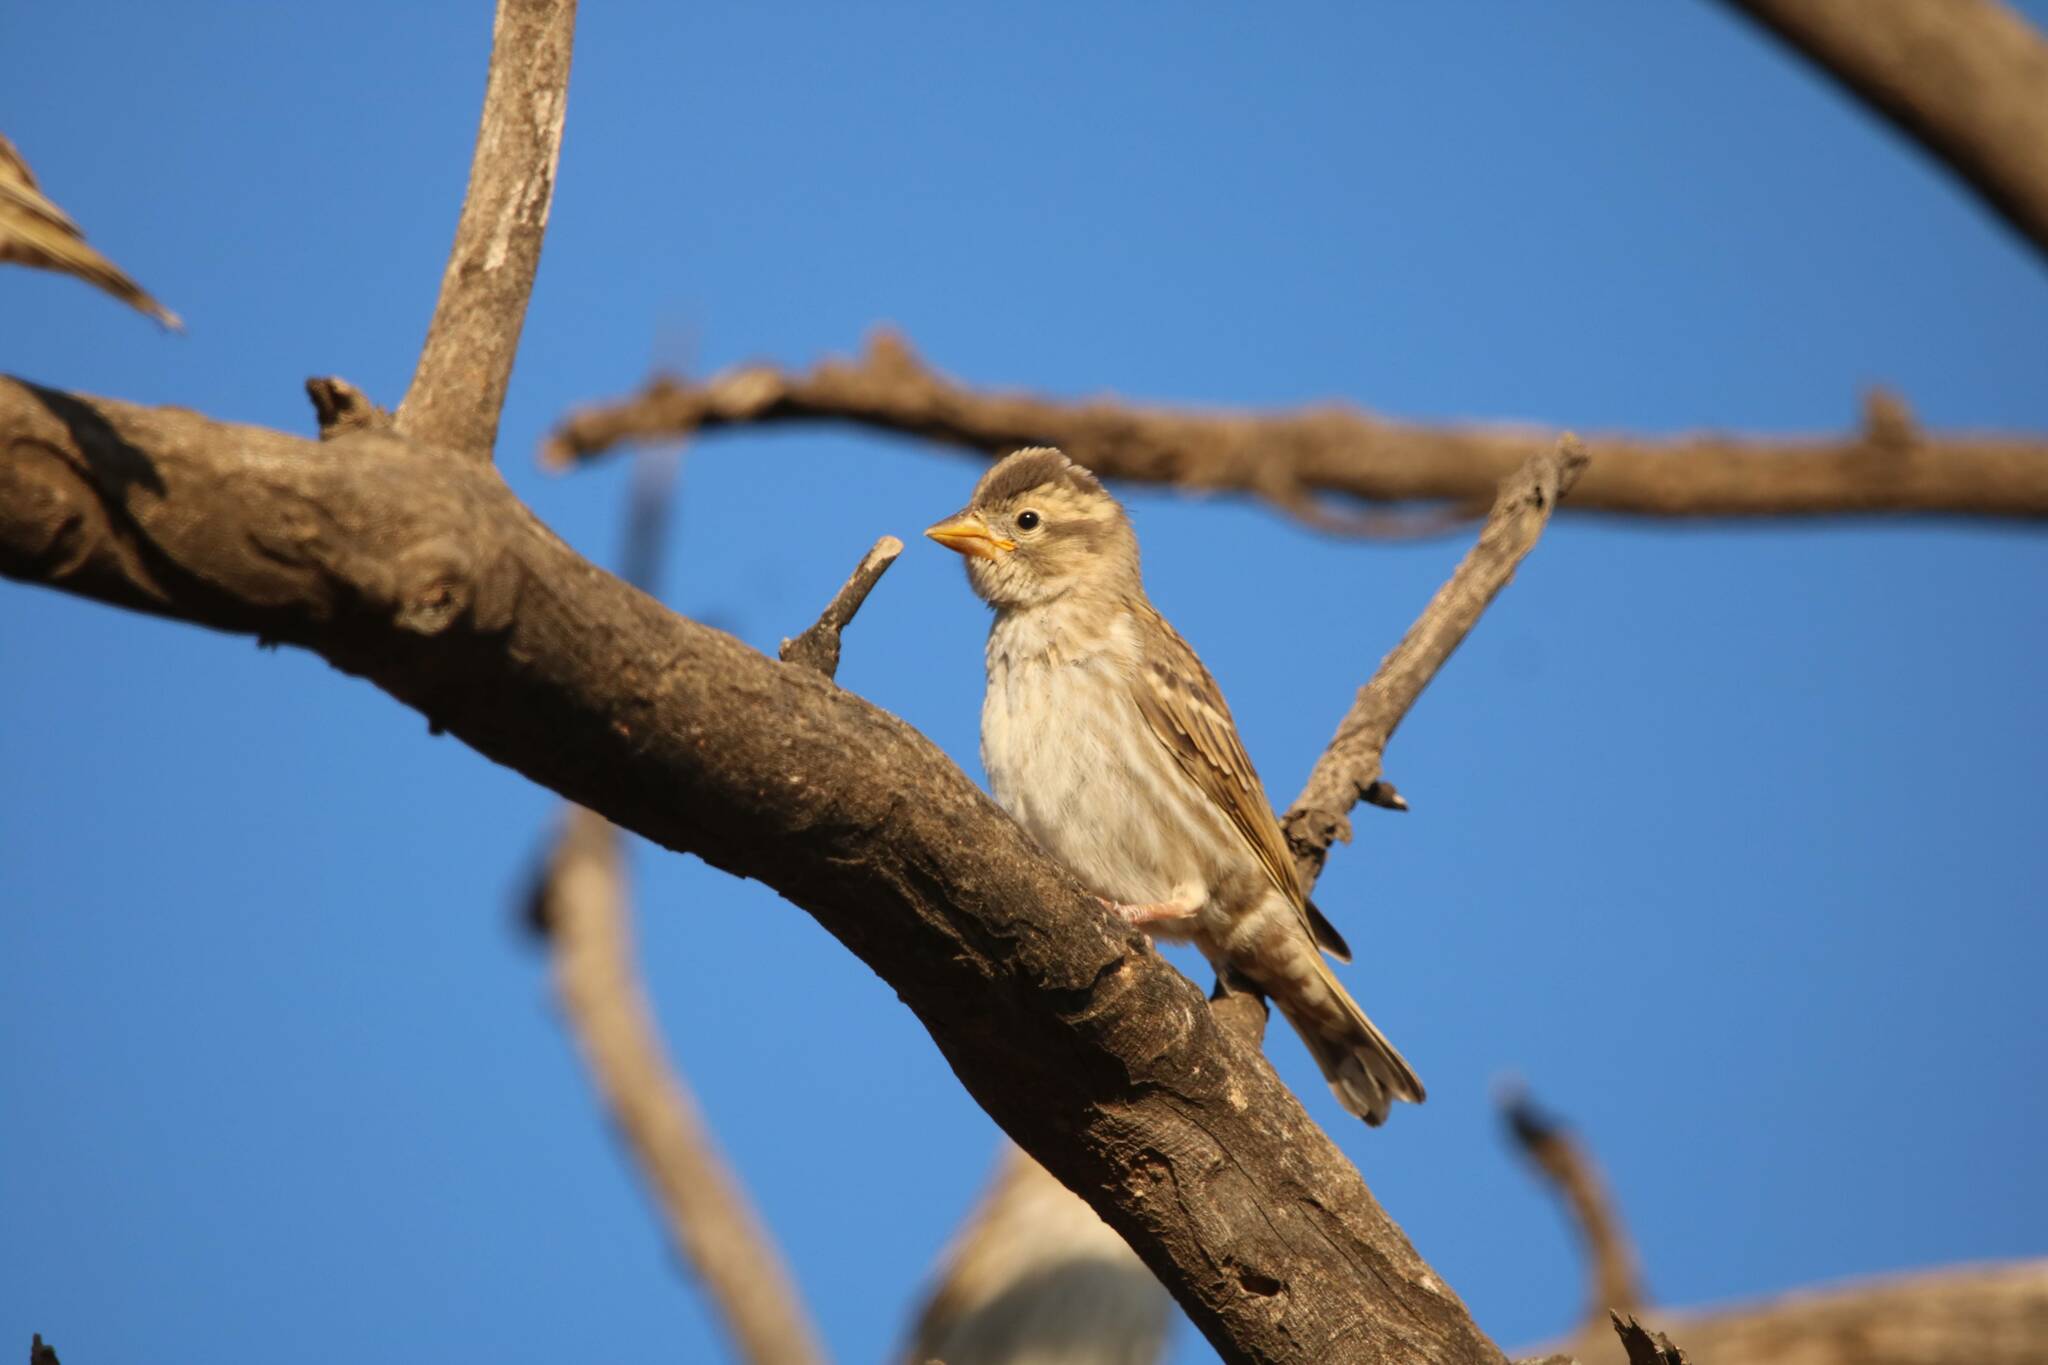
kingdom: Animalia
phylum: Chordata
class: Aves
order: Passeriformes
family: Passeridae
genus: Petronia
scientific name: Petronia petronia
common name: Rock sparrow
